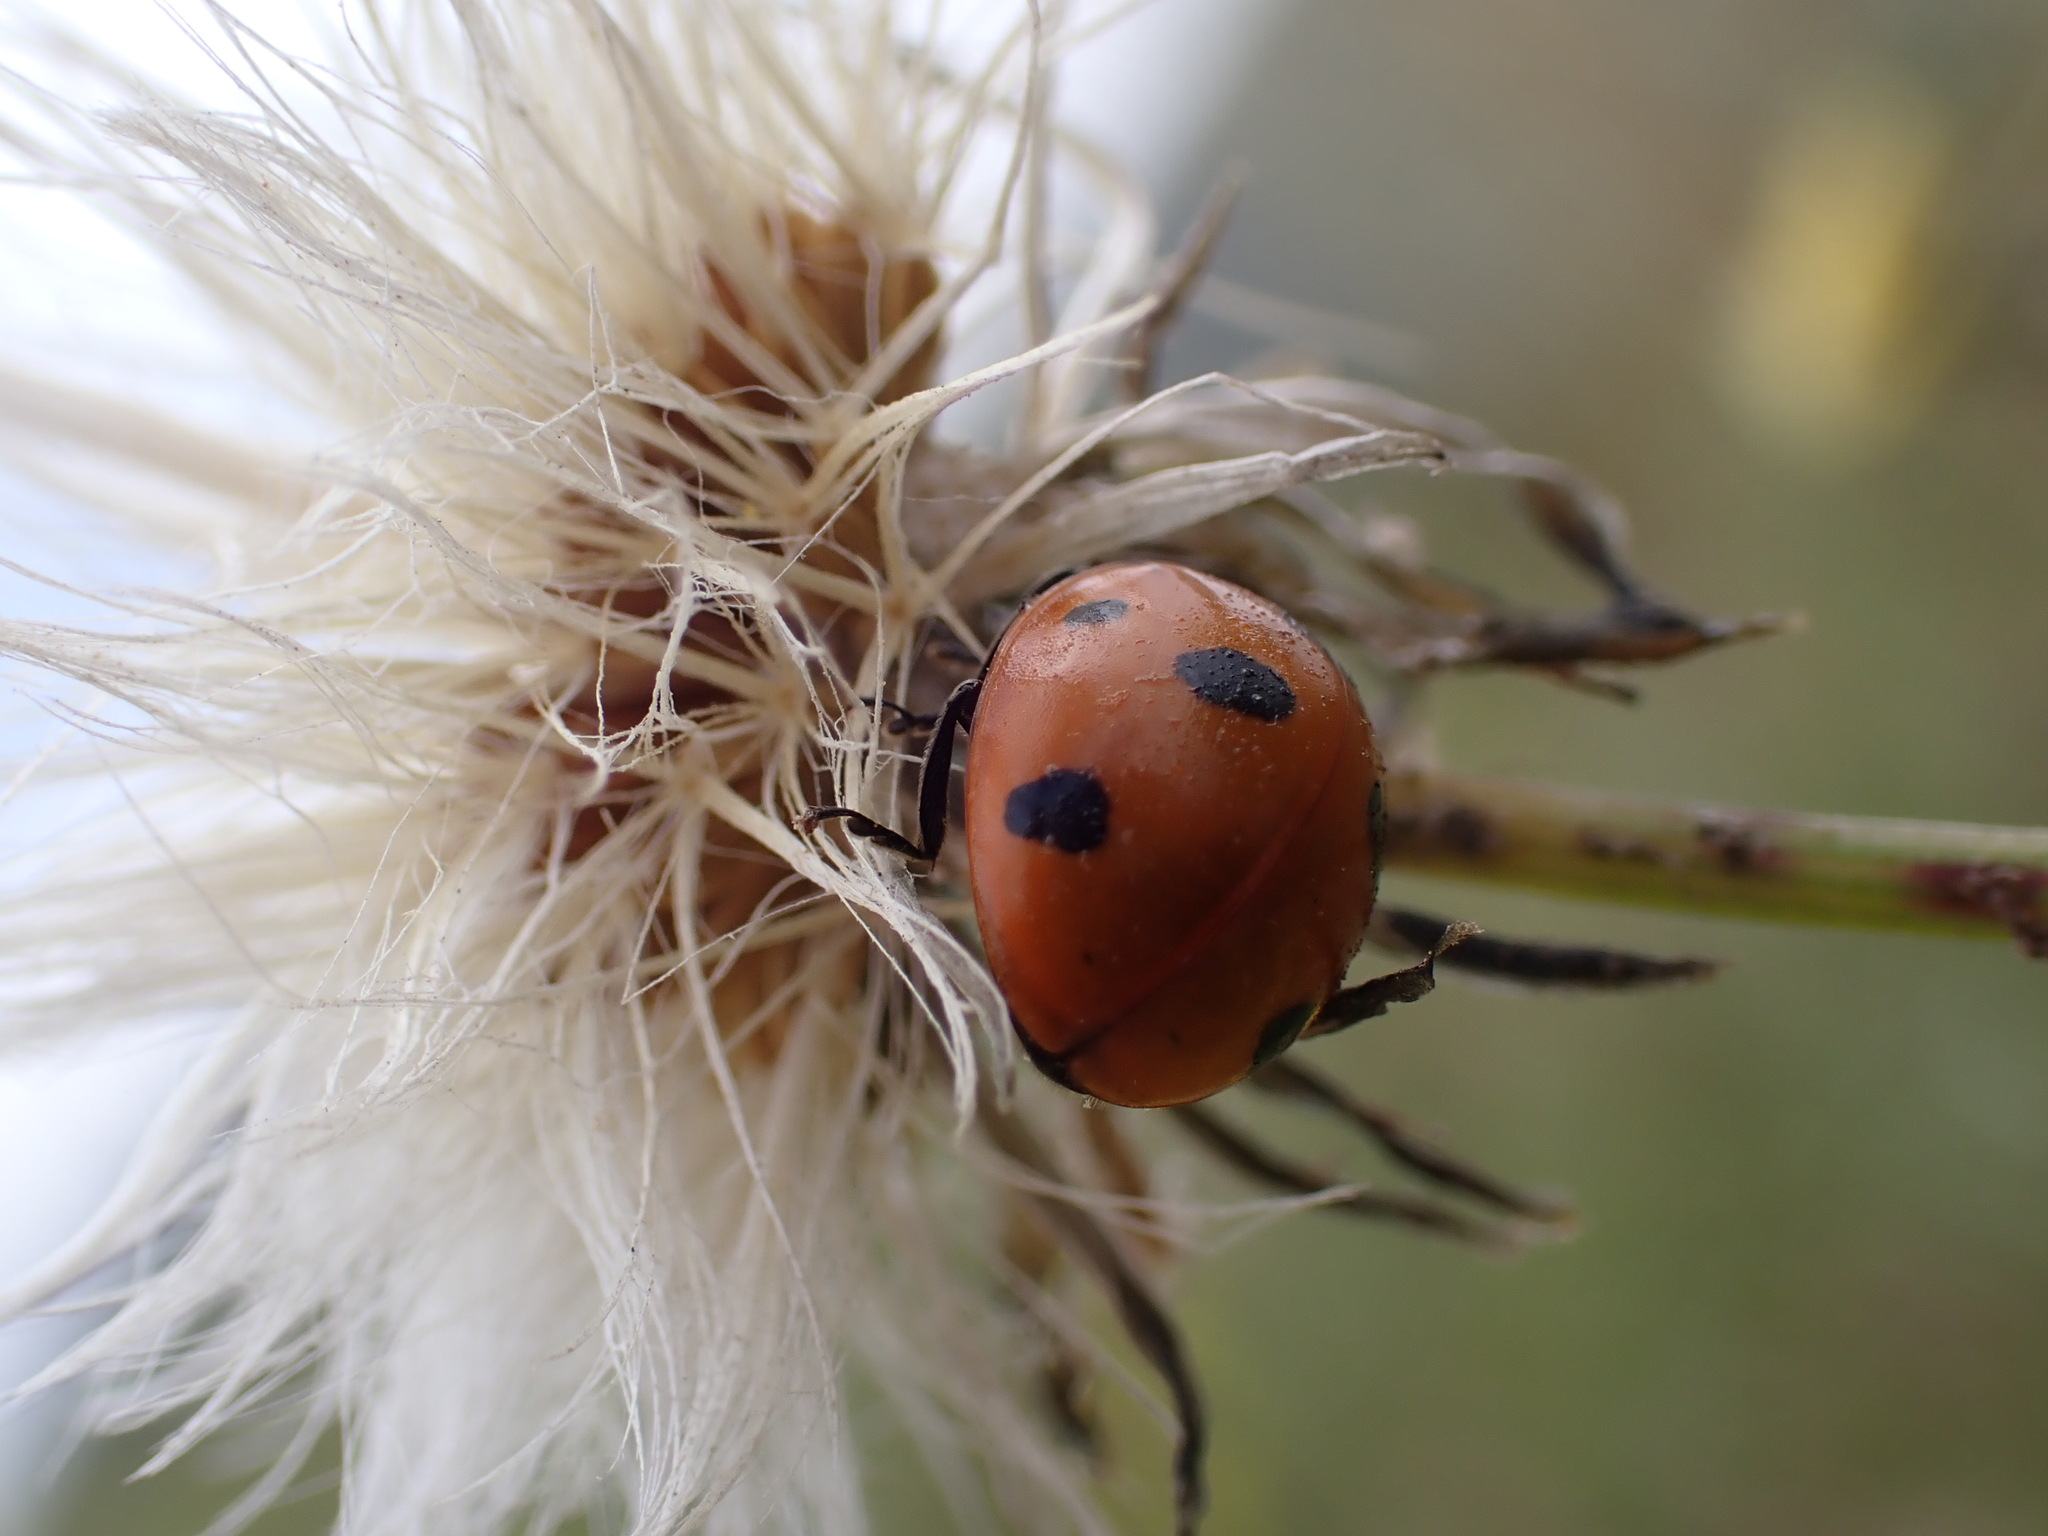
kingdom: Animalia
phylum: Arthropoda
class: Insecta
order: Coleoptera
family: Coccinellidae
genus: Coccinella
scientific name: Coccinella septempunctata
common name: Sevenspotted lady beetle
